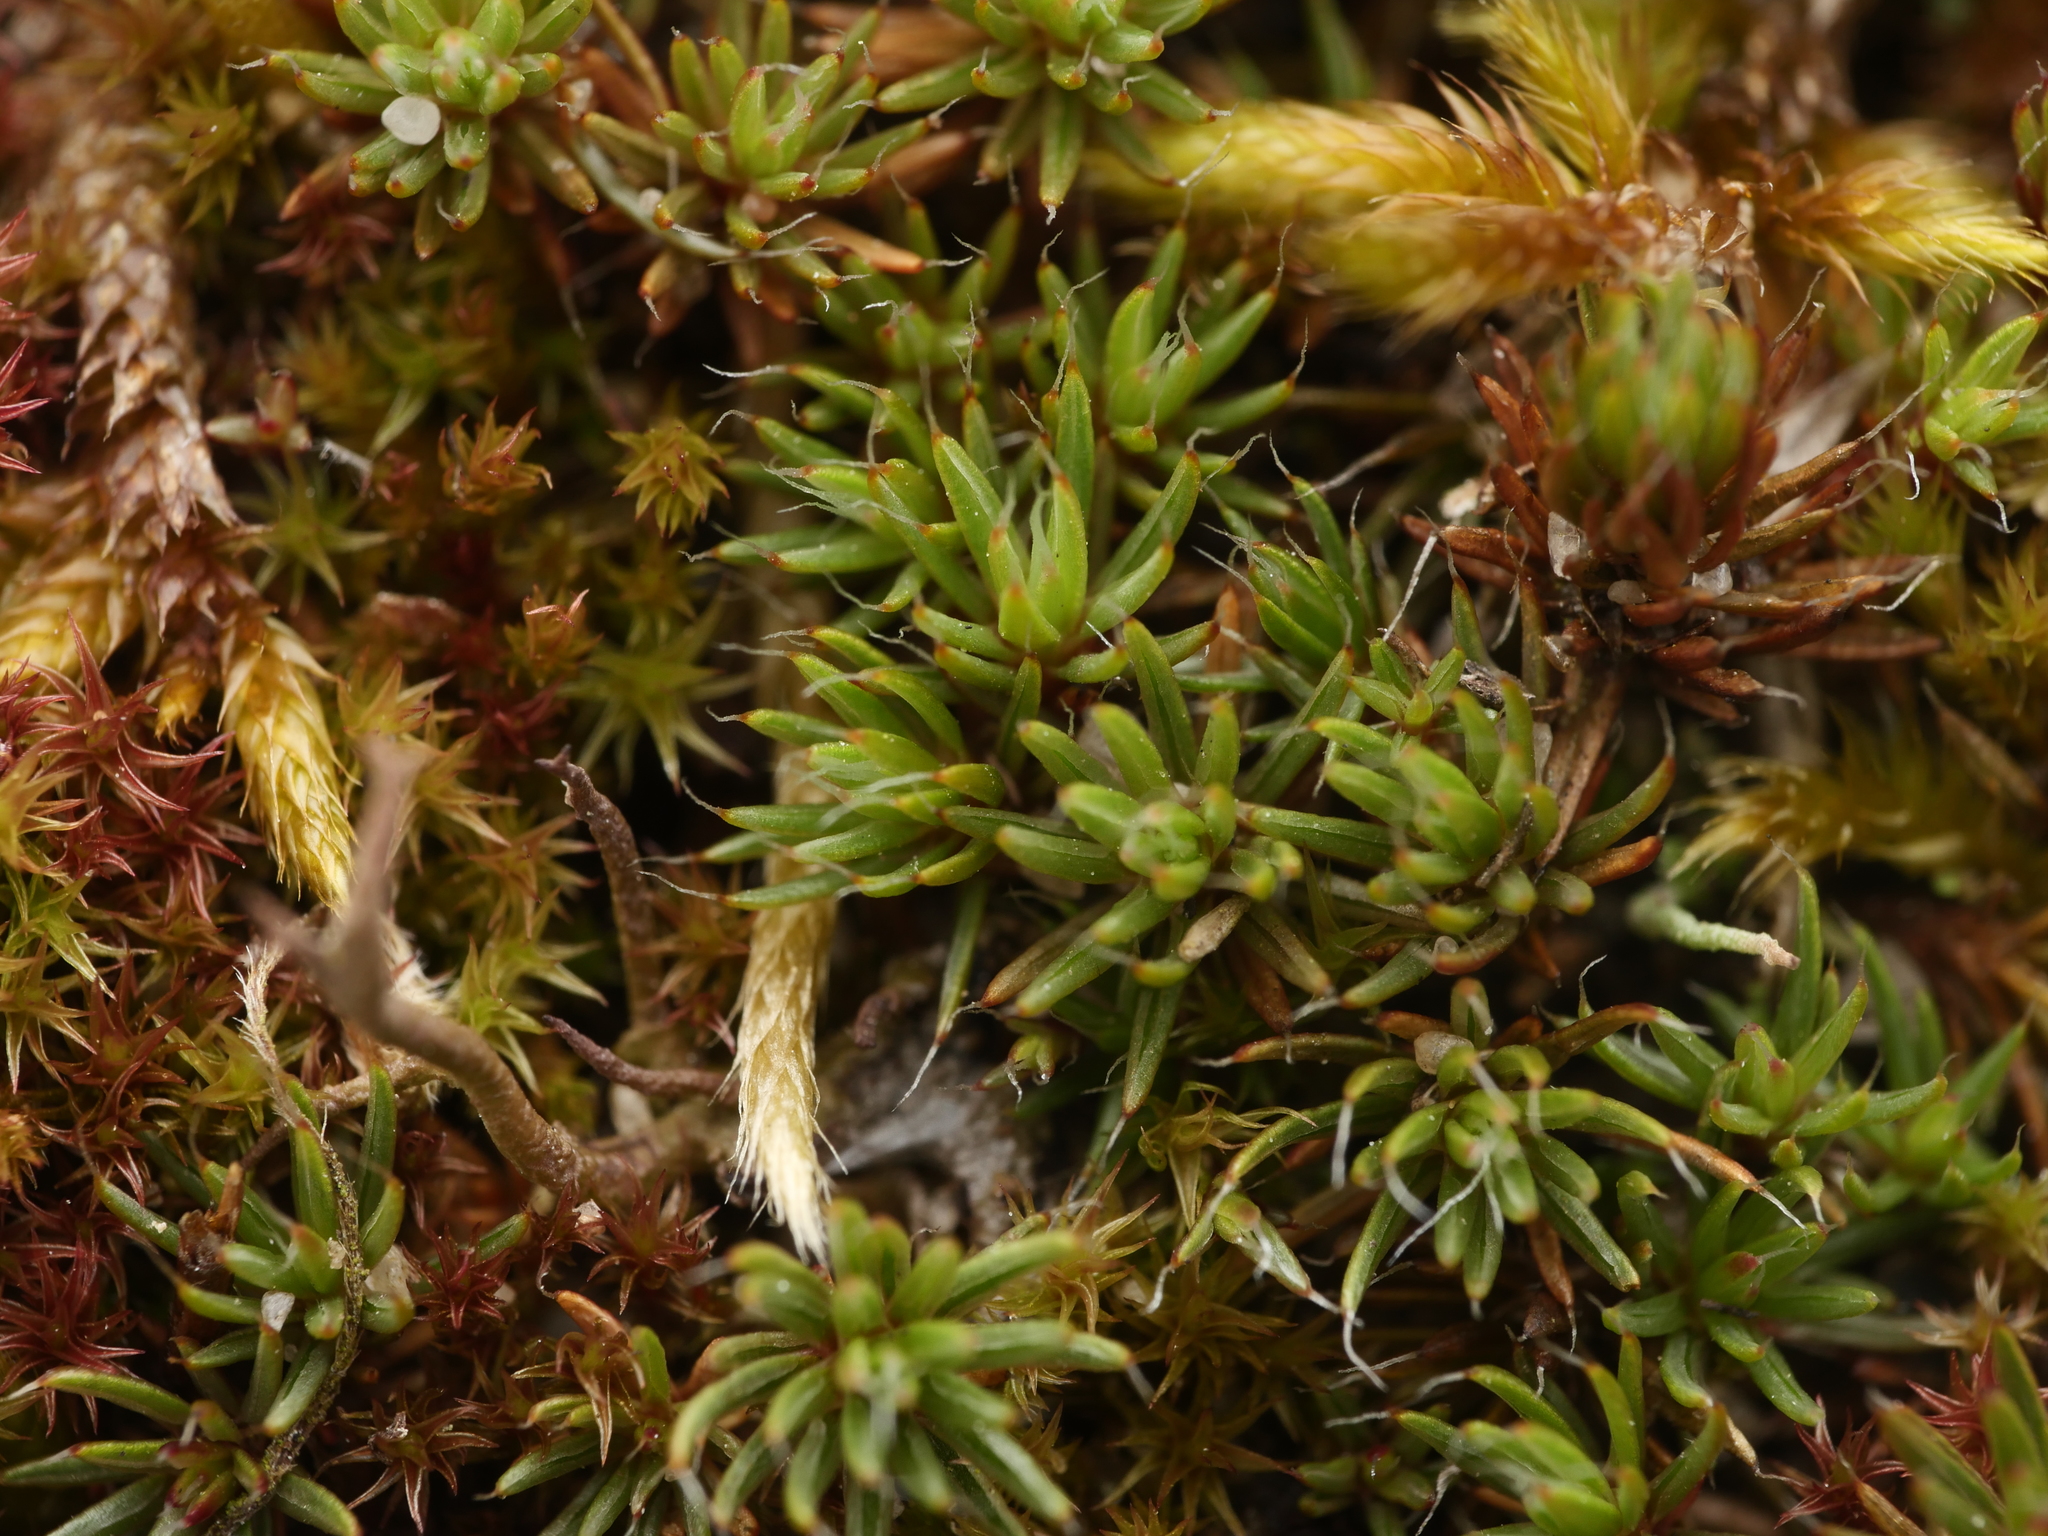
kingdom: Plantae
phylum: Bryophyta
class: Polytrichopsida
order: Polytrichales
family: Polytrichaceae
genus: Polytrichum
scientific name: Polytrichum piliferum
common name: Bristly haircap
